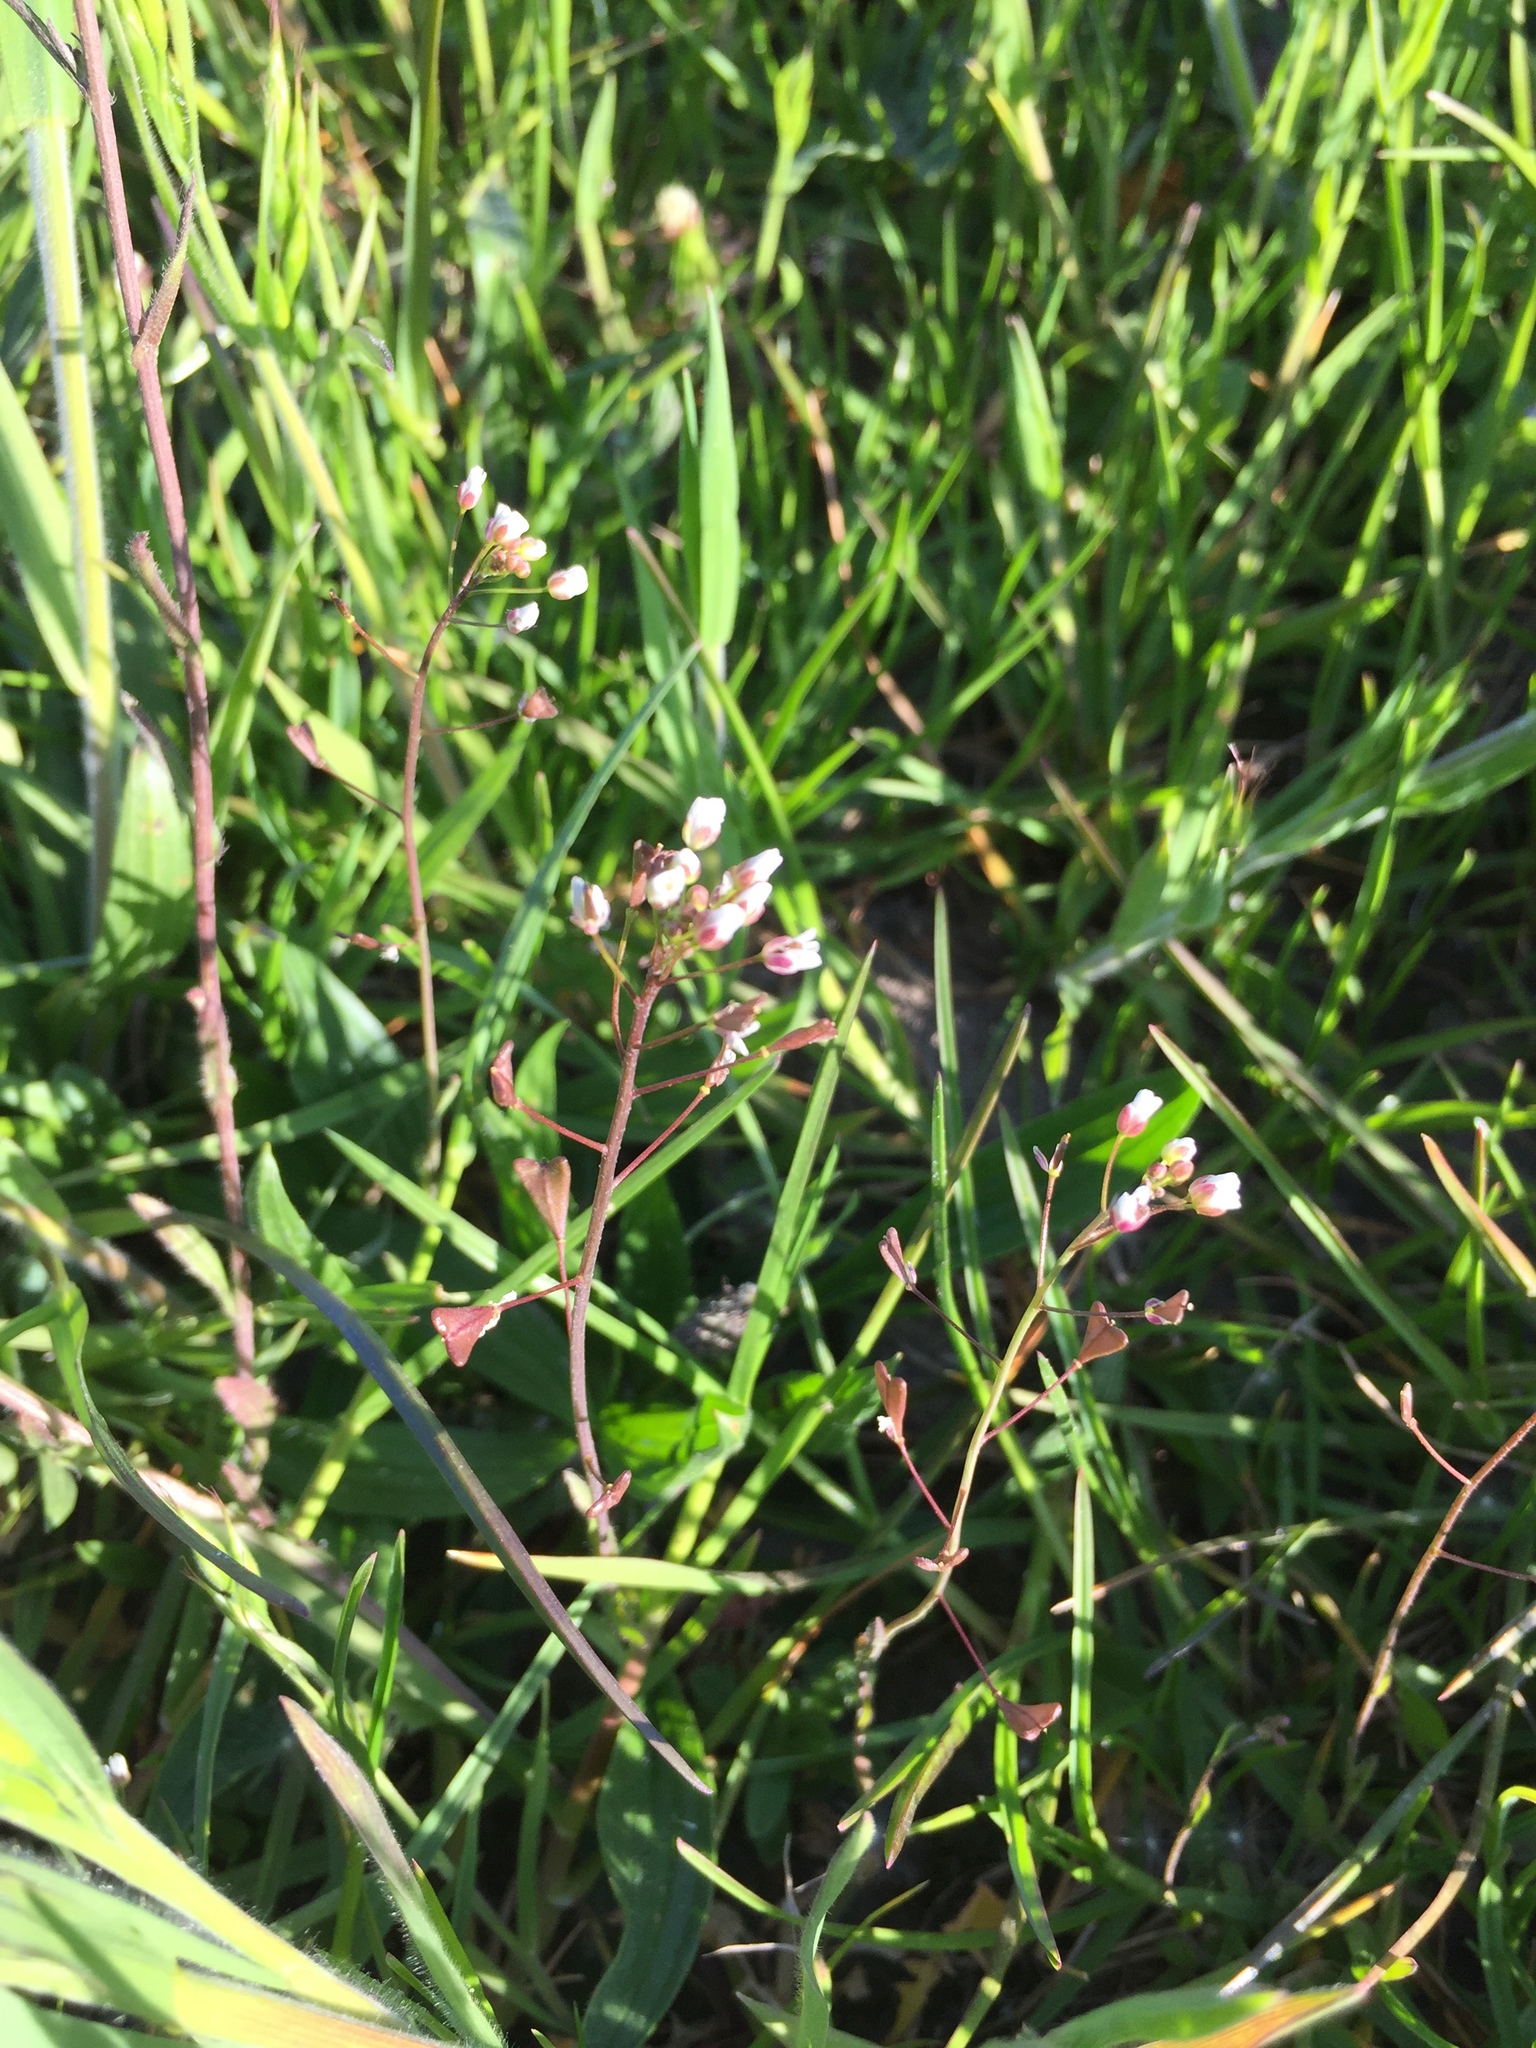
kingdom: Plantae
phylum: Tracheophyta
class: Magnoliopsida
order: Brassicales
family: Brassicaceae
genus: Capsella
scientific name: Capsella bursa-pastoris
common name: Shepherd's purse
